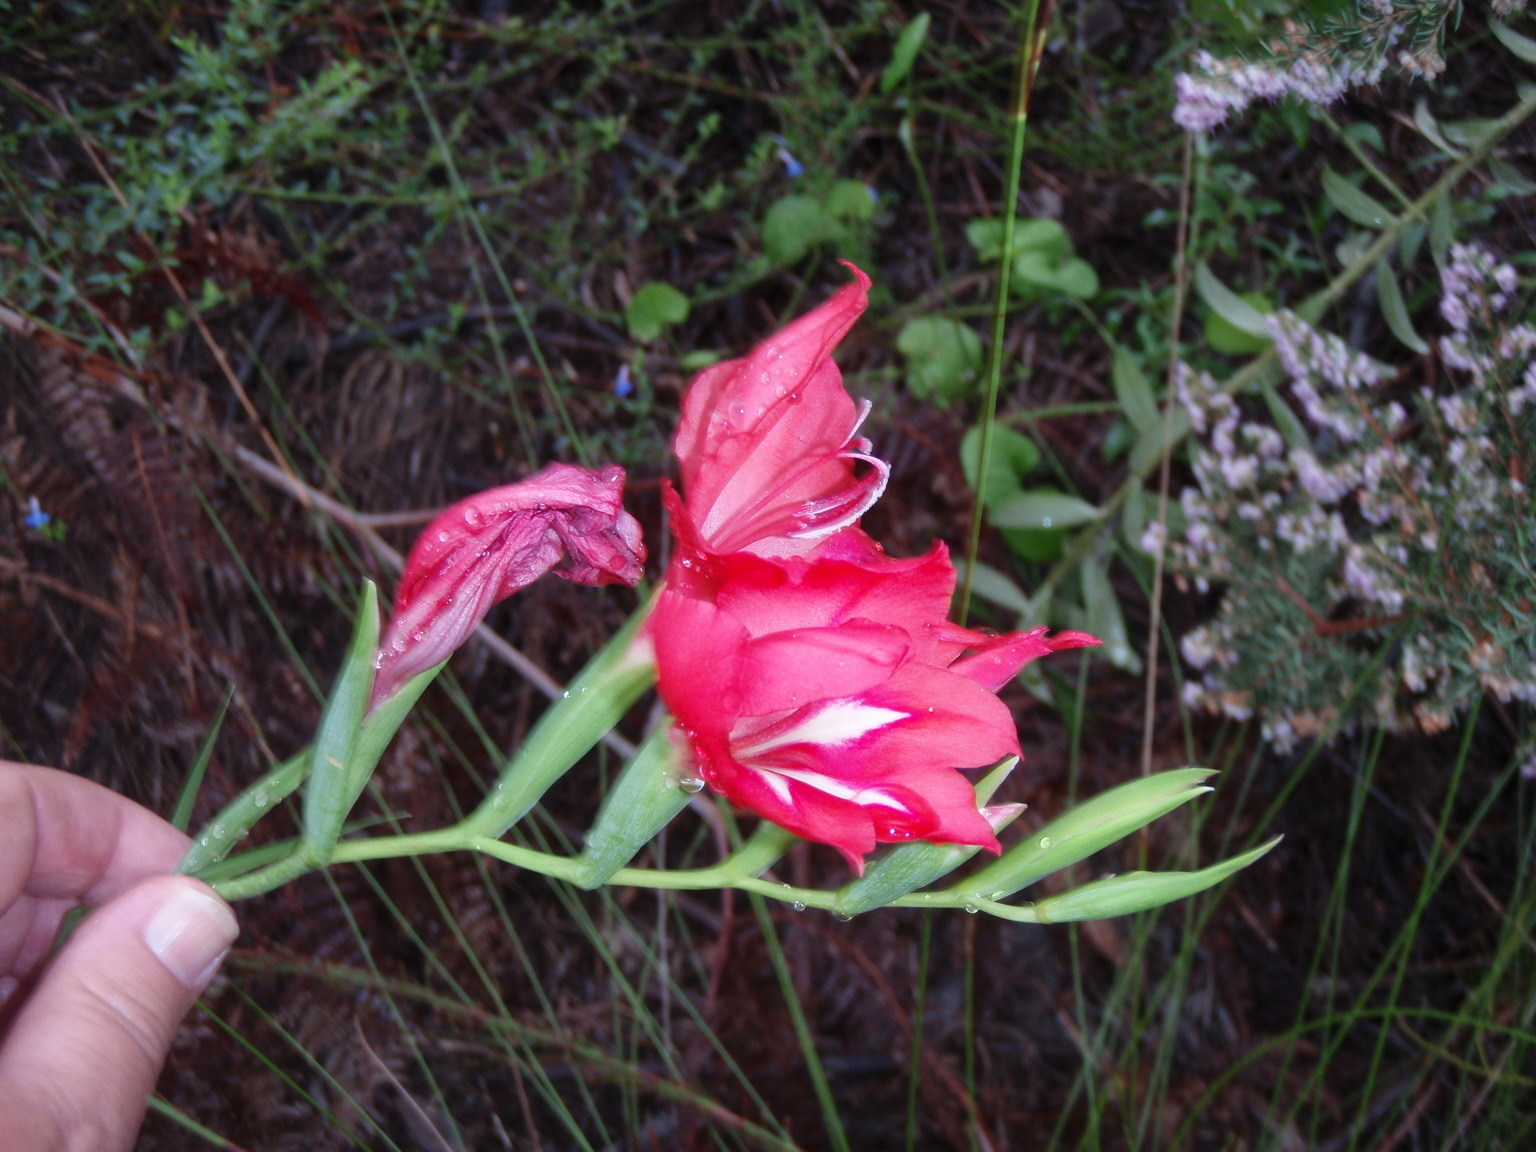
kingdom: Plantae
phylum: Tracheophyta
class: Liliopsida
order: Asparagales
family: Iridaceae
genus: Gladiolus
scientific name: Gladiolus sempervirens
